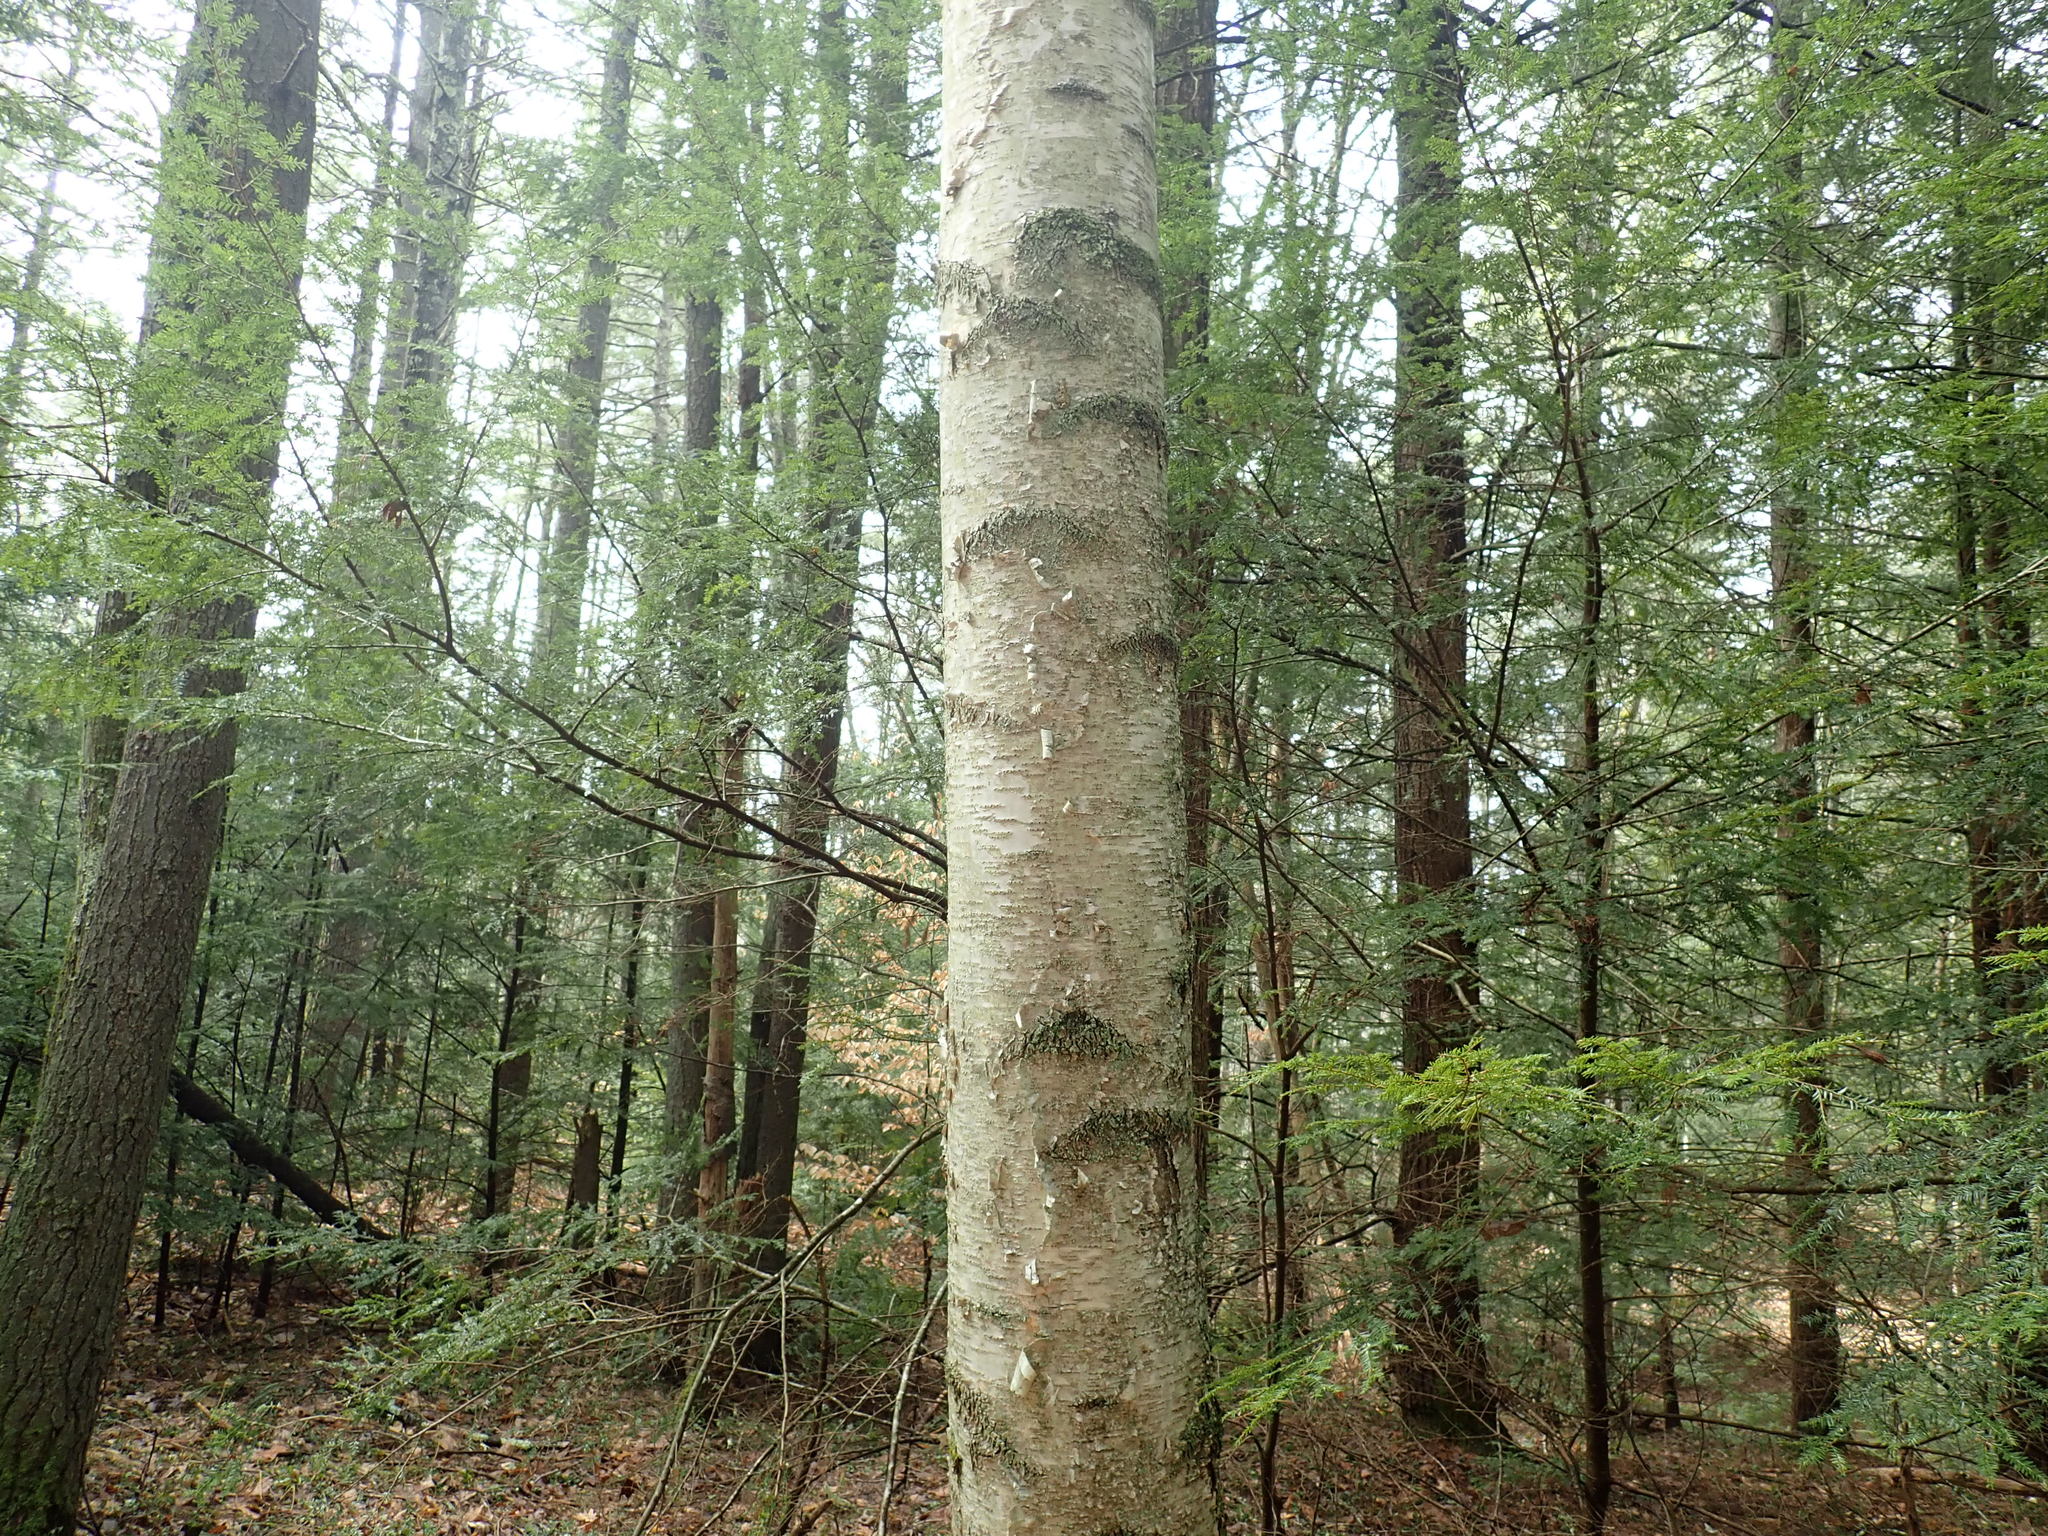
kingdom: Plantae
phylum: Tracheophyta
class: Magnoliopsida
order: Fagales
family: Betulaceae
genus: Betula
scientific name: Betula papyrifera
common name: Paper birch
